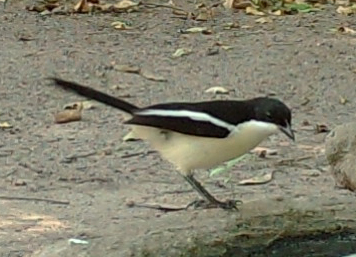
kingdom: Animalia
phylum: Chordata
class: Aves
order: Passeriformes
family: Malaconotidae
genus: Laniarius
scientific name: Laniarius bicolor
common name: Swamp boubou
